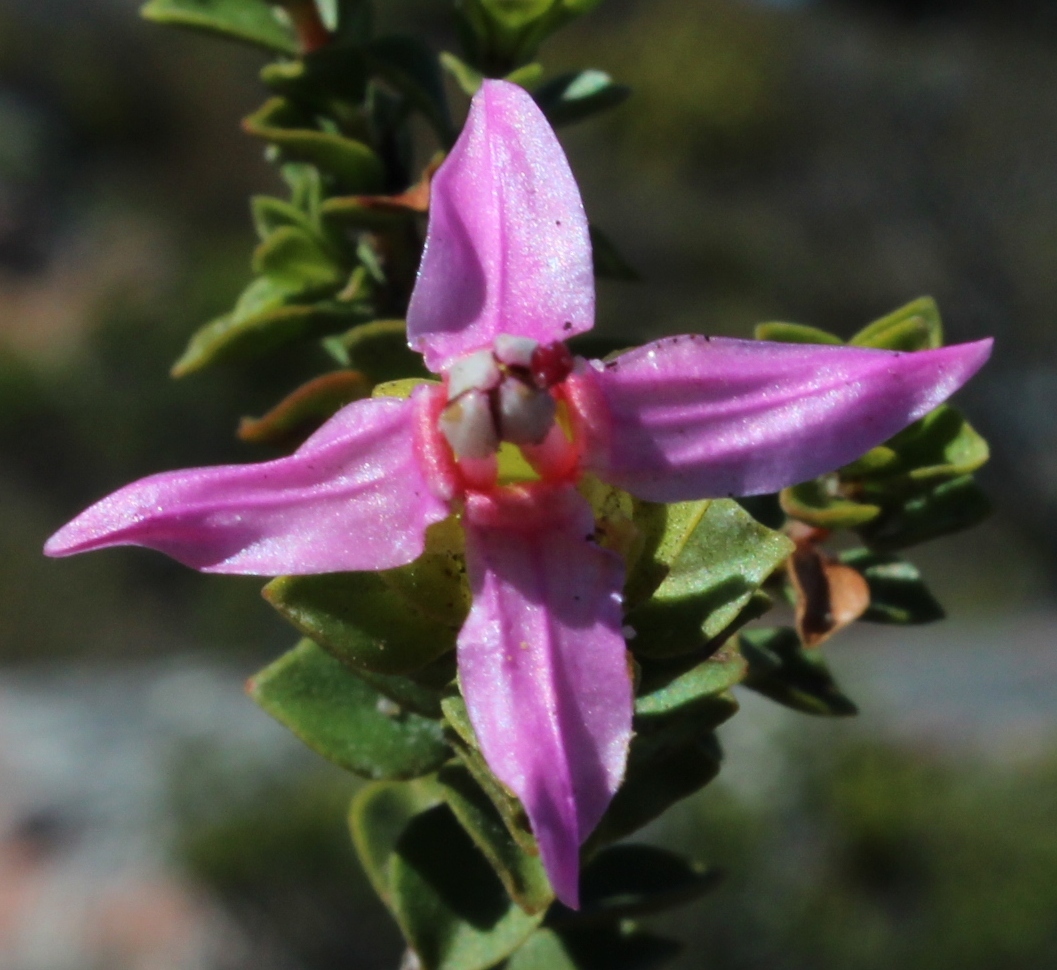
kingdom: Plantae
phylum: Tracheophyta
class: Magnoliopsida
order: Myrtales
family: Penaeaceae
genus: Saltera
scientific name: Saltera sarcocolla
